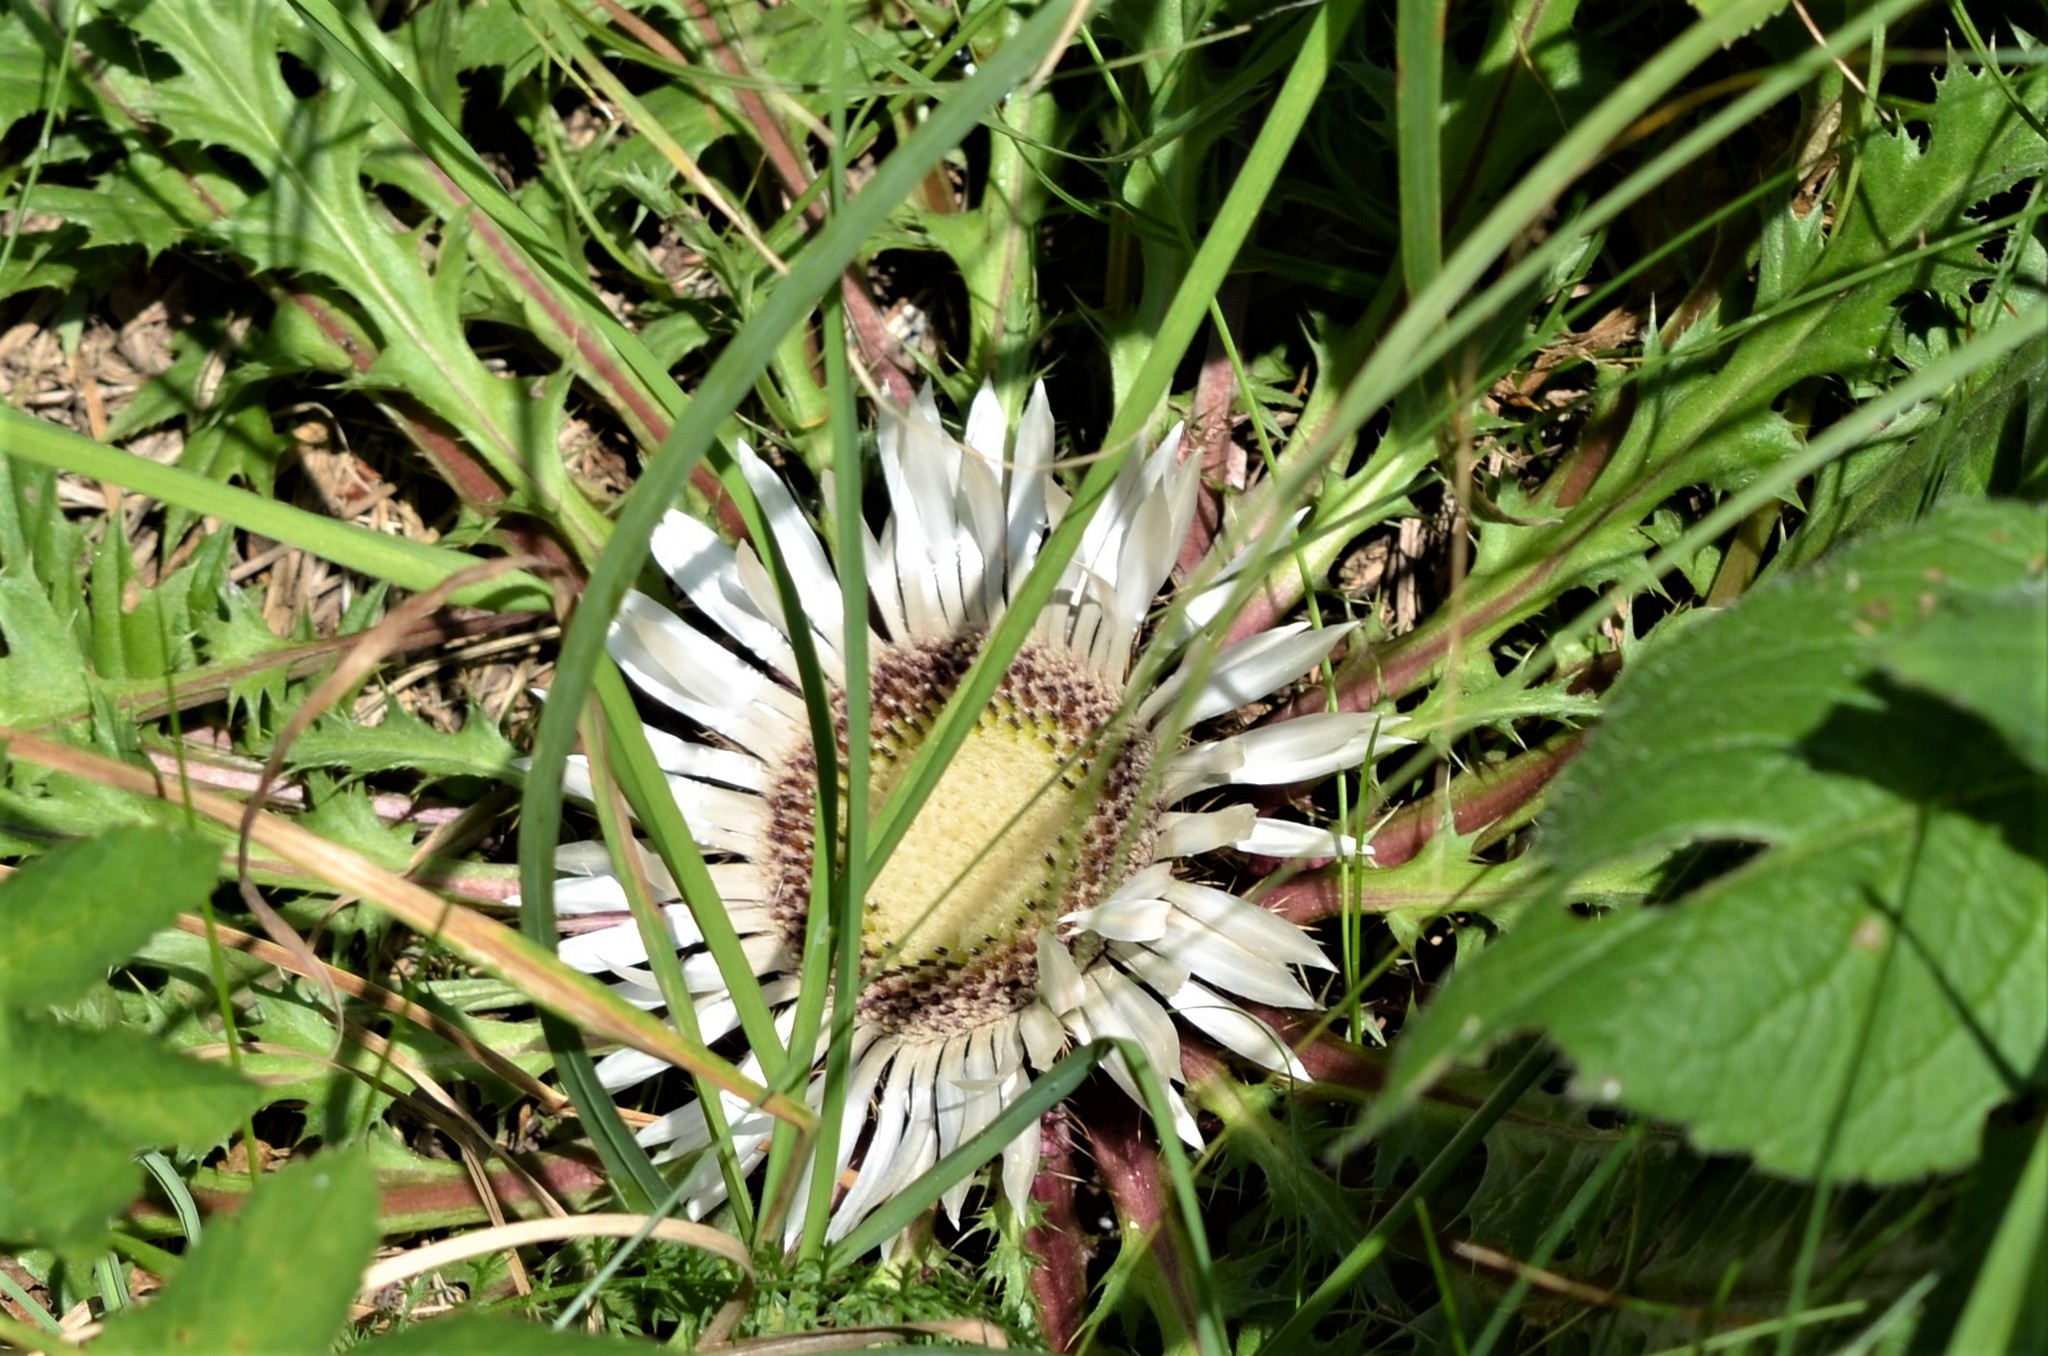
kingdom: Plantae
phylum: Tracheophyta
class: Magnoliopsida
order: Asterales
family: Asteraceae
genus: Carlina
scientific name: Carlina acaulis
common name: Stemless carline thistle
